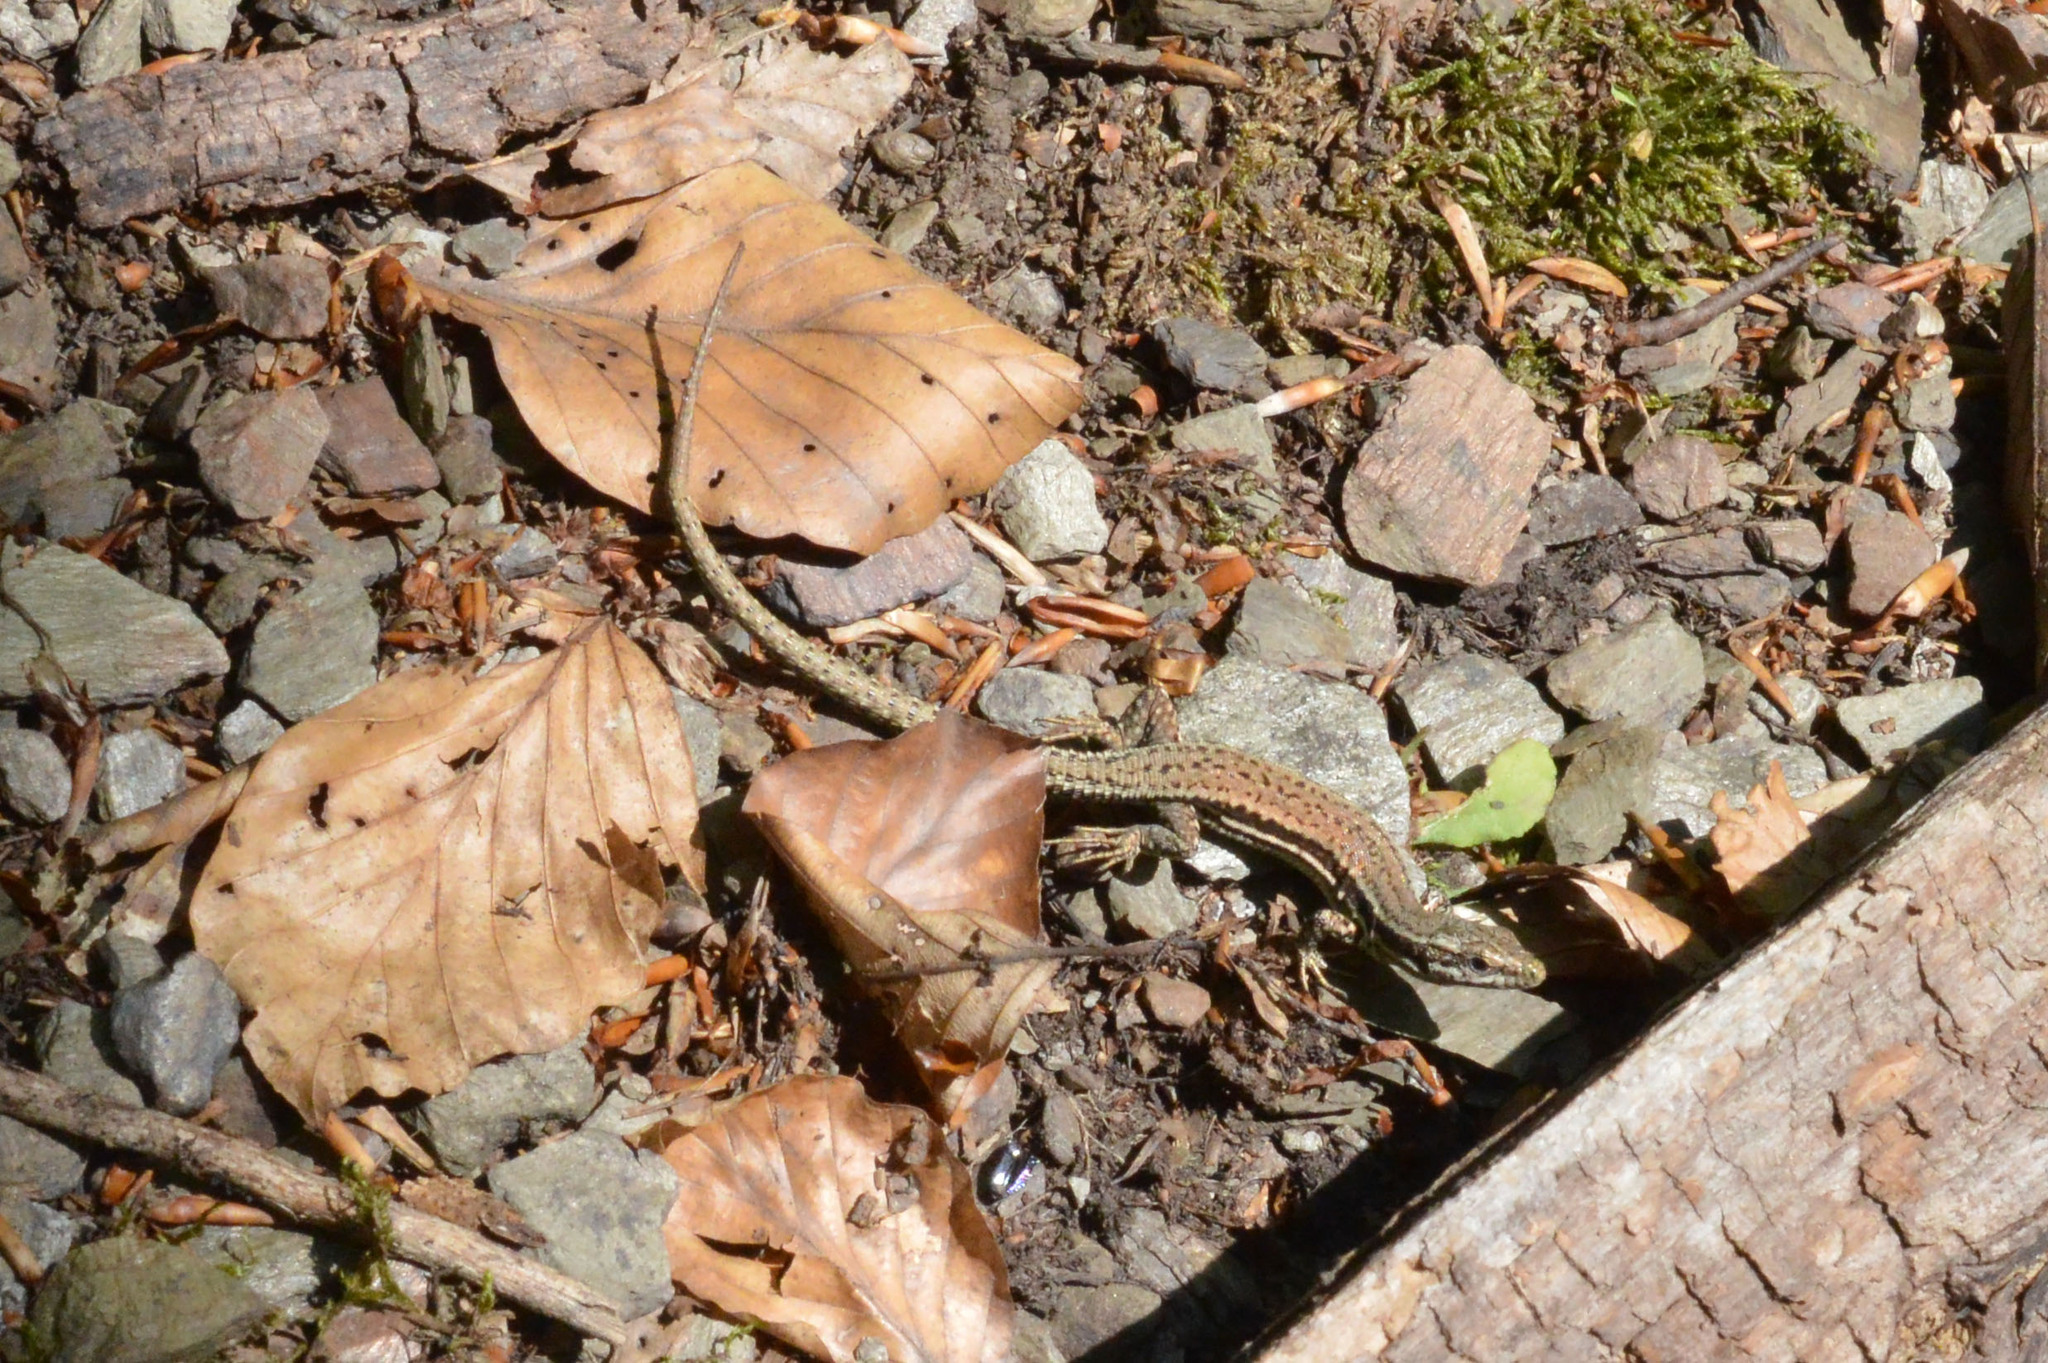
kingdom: Animalia
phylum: Chordata
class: Squamata
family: Lacertidae
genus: Podarcis
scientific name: Podarcis muralis
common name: Common wall lizard
